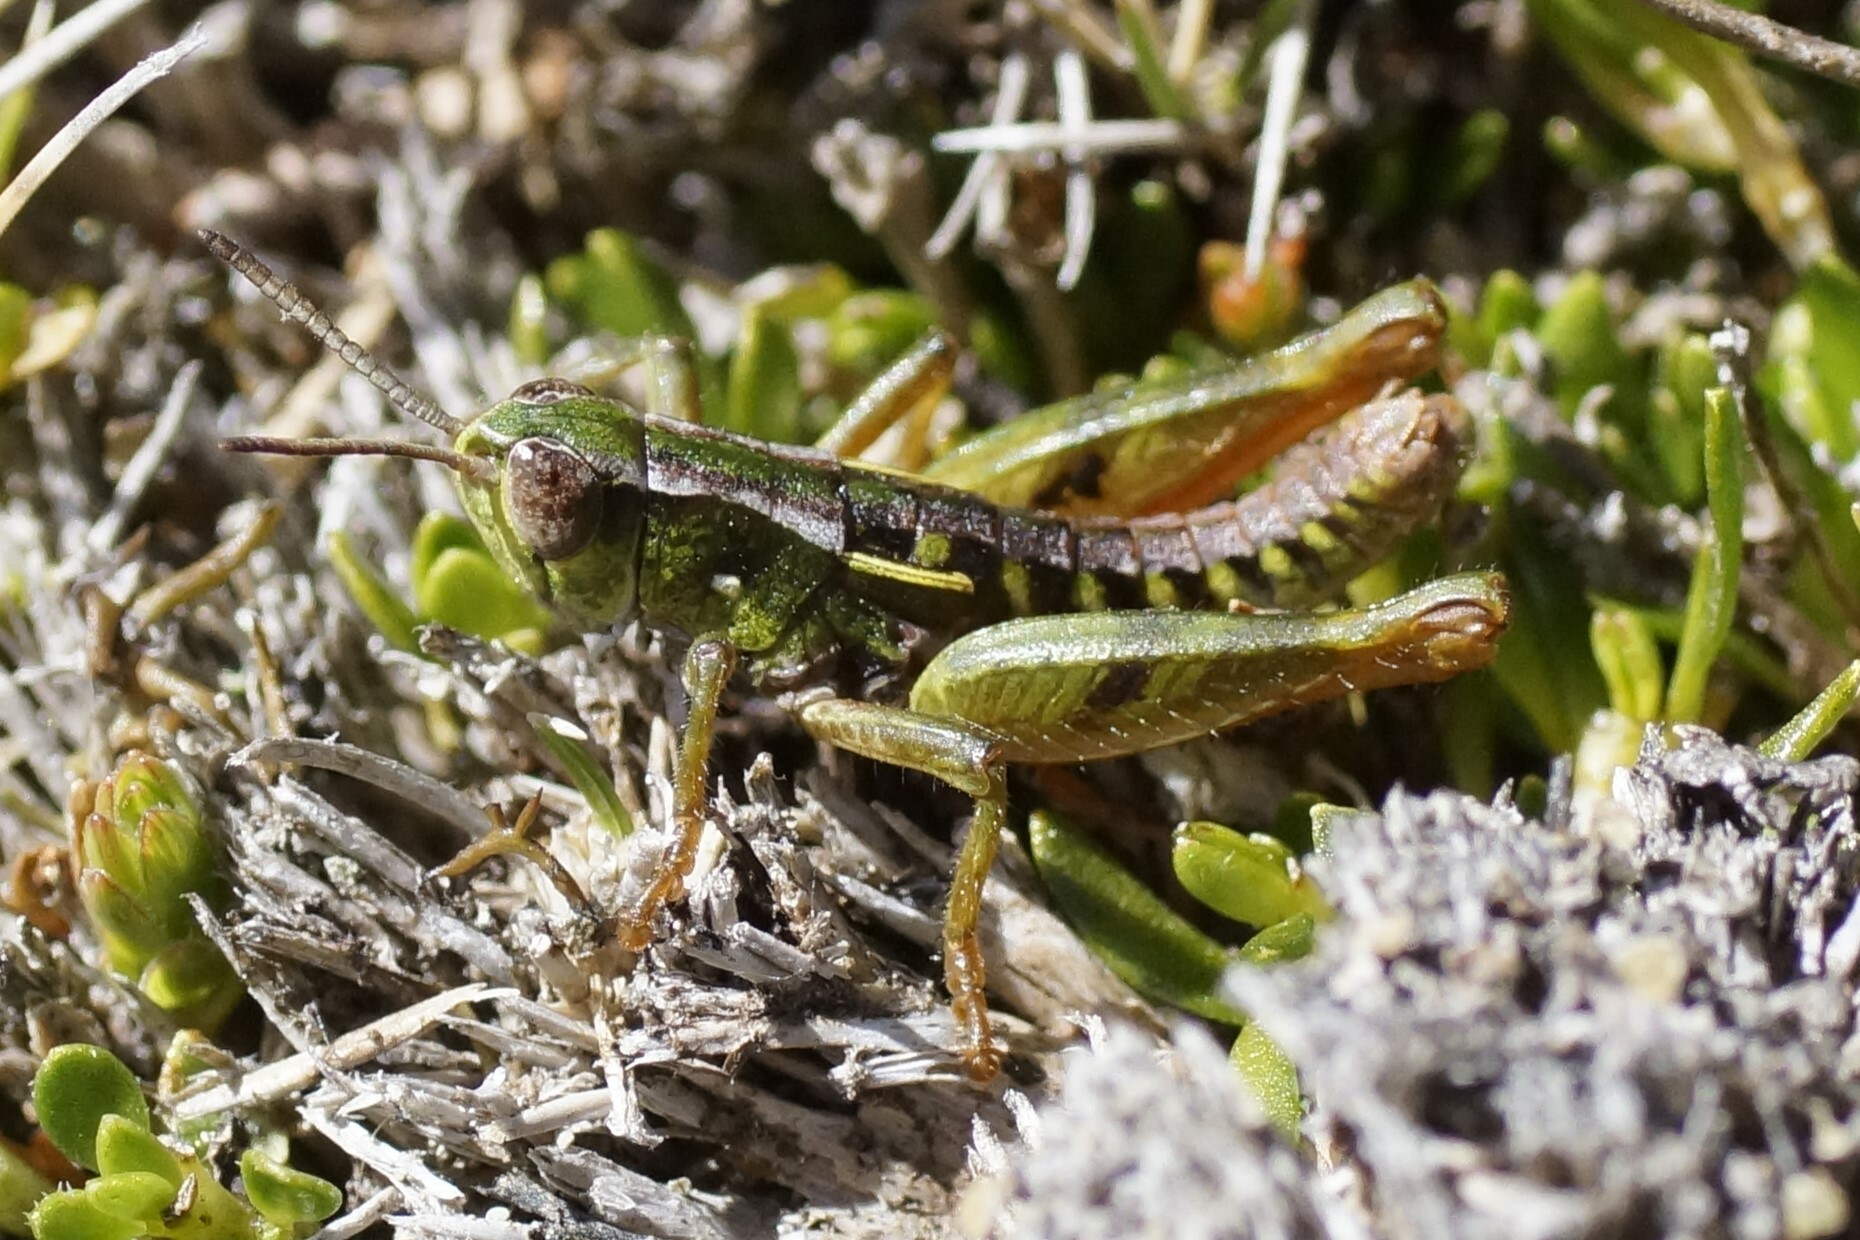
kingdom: Animalia
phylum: Arthropoda
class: Insecta
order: Orthoptera
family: Acrididae
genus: Russalpia
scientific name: Russalpia albertisi
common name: Tassie hopper
